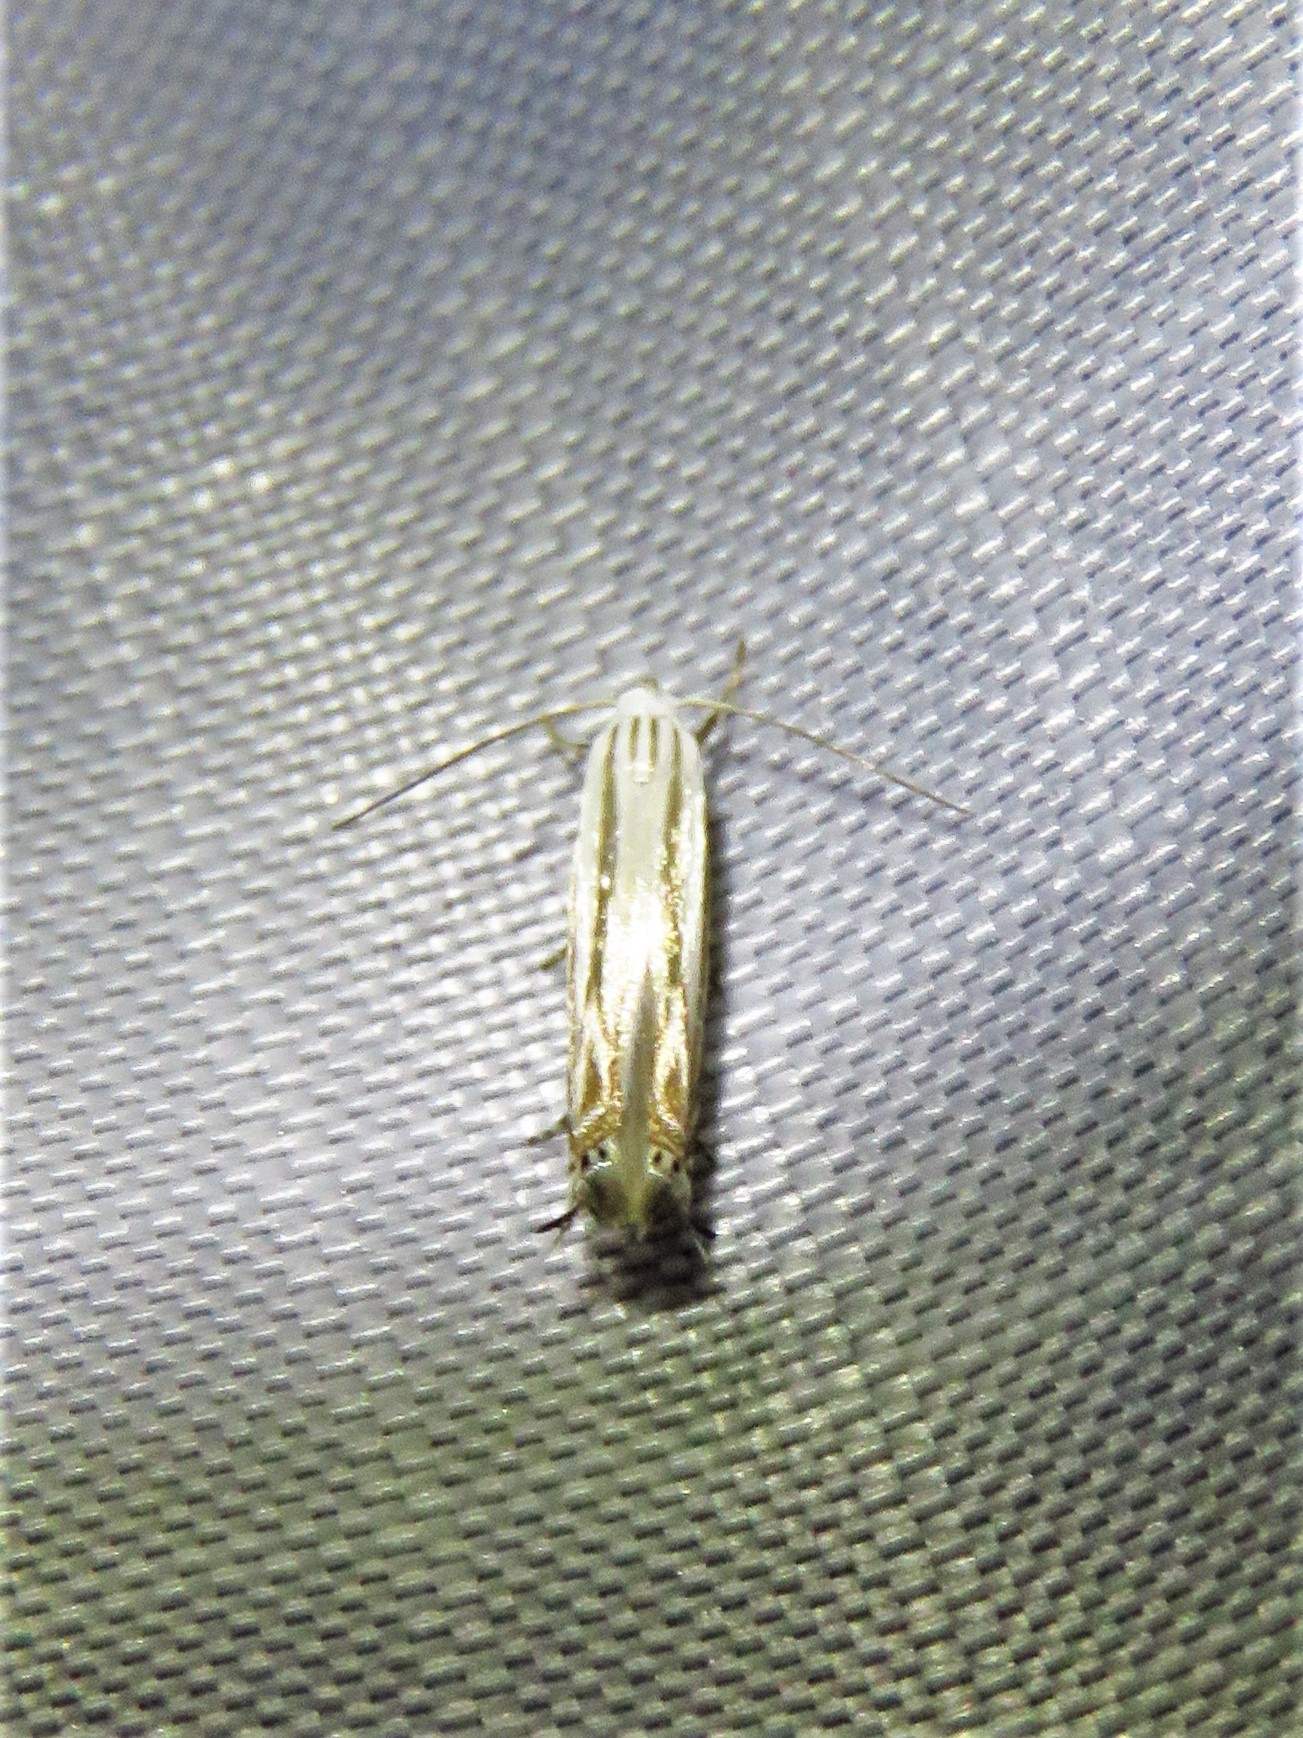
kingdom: Animalia
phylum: Arthropoda
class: Insecta
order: Lepidoptera
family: Gelechiidae
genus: Polyhymno
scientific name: Polyhymno luteostrigella
